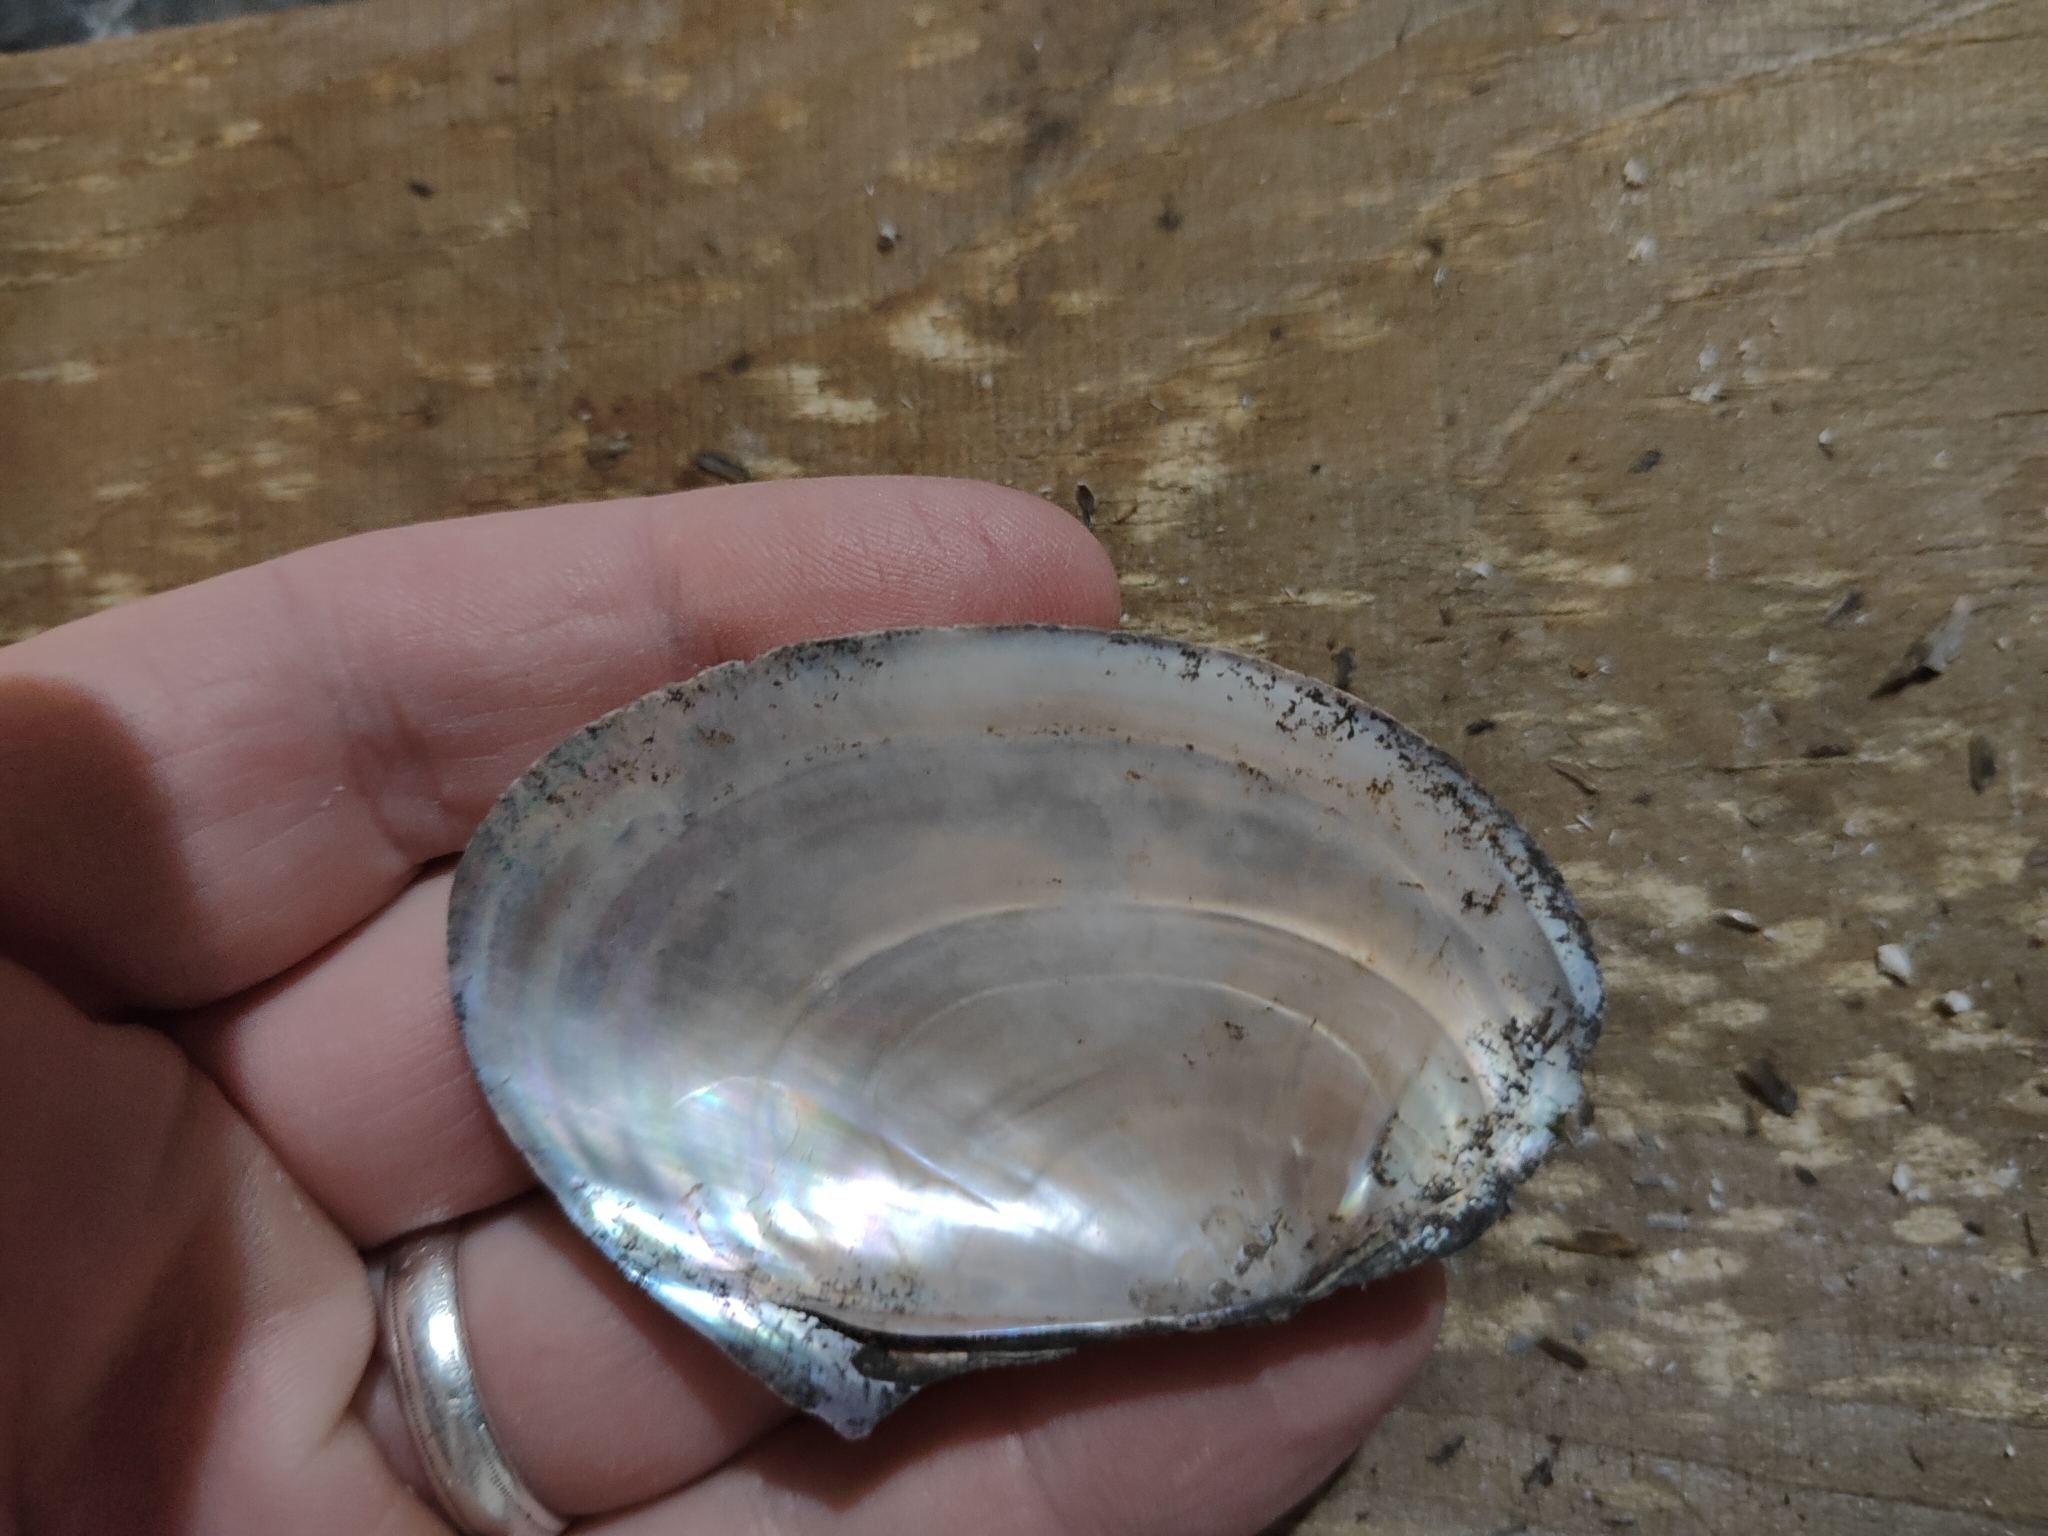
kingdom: Animalia
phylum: Mollusca
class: Bivalvia
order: Unionida
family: Unionidae
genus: Potamilus
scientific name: Potamilus ohiensis
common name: Pink papershell
